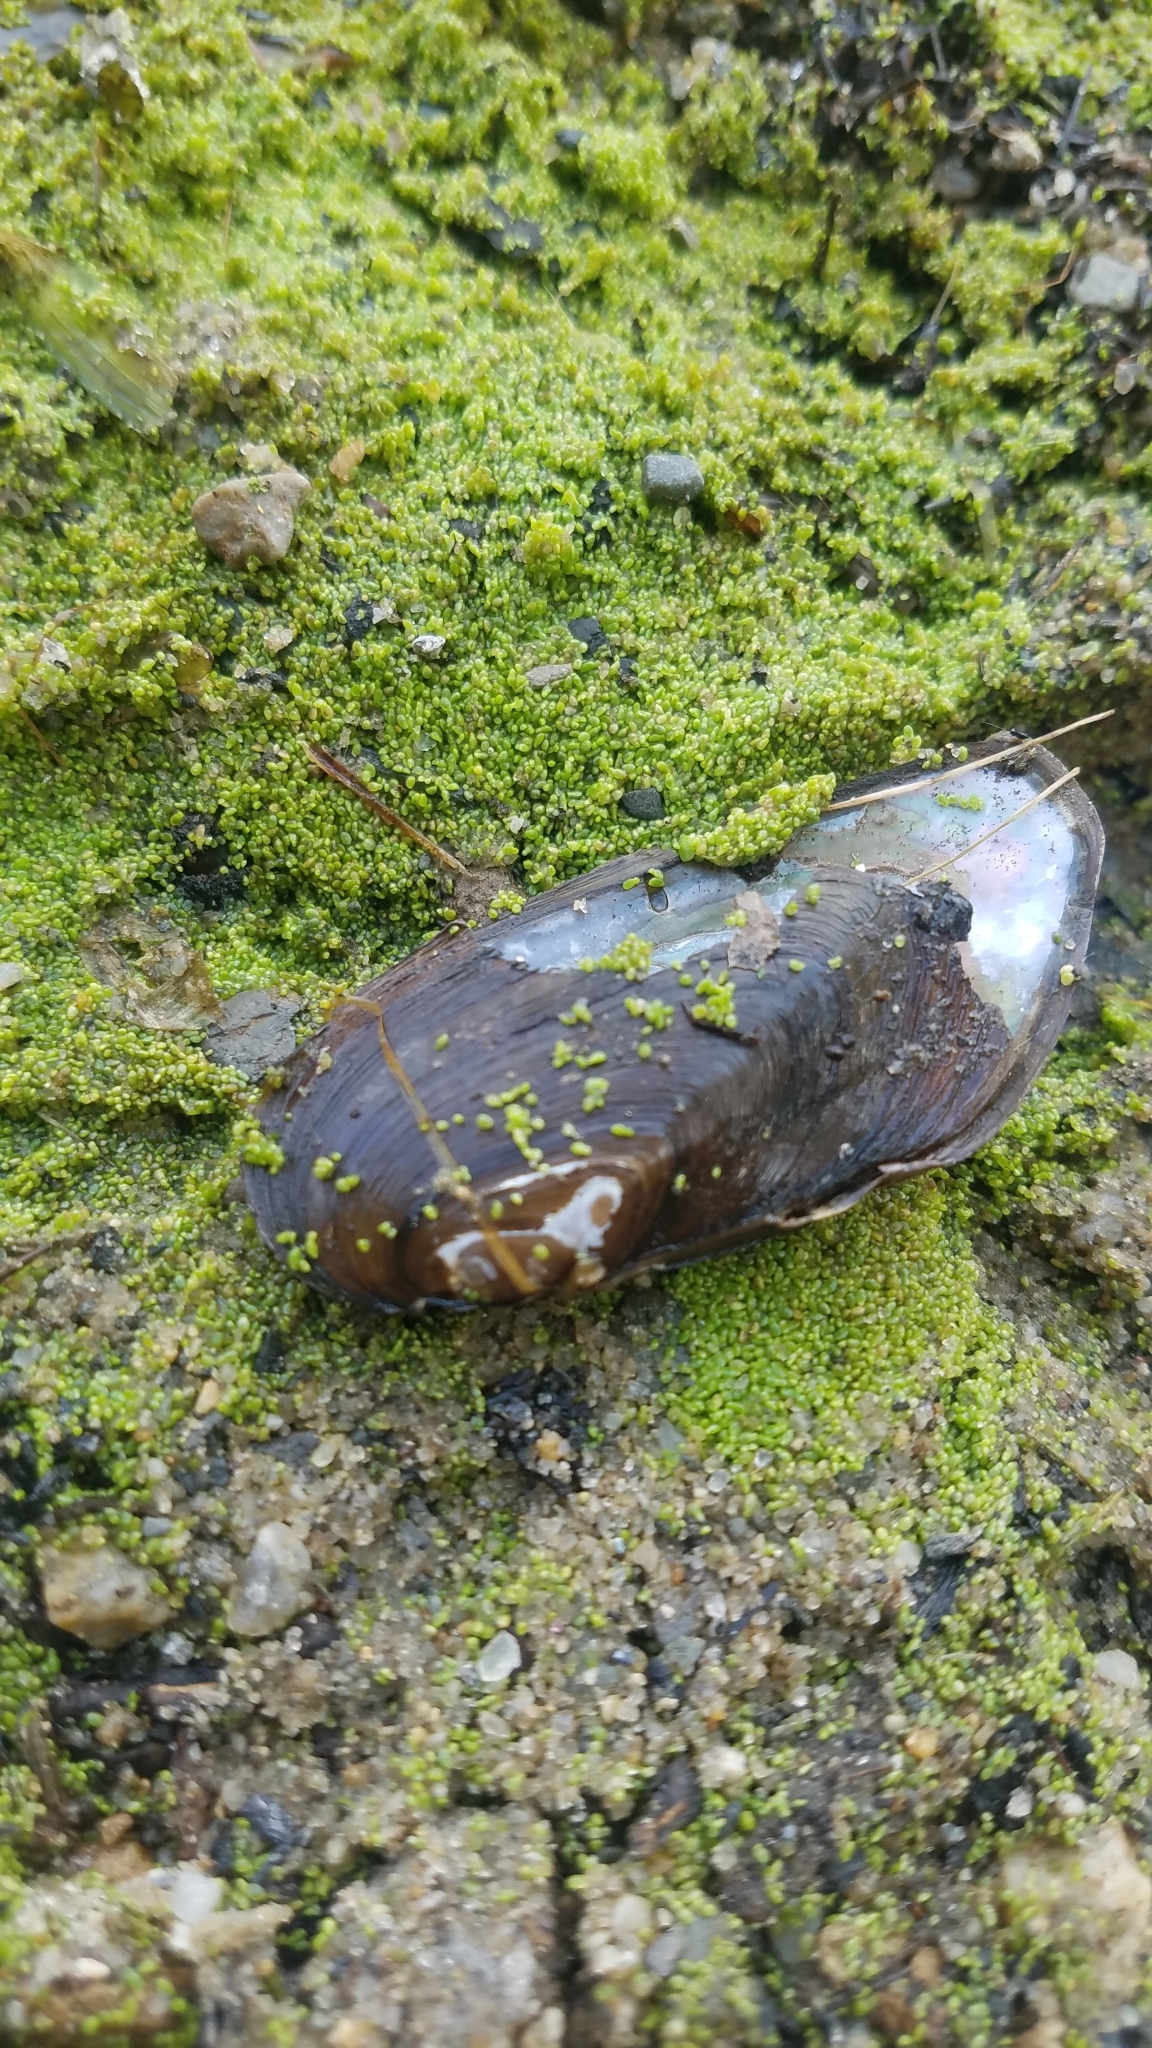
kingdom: Animalia
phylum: Mollusca
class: Bivalvia
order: Unionida
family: Unionidae
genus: Elliptio
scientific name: Elliptio complanata
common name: Eastern elliptio
